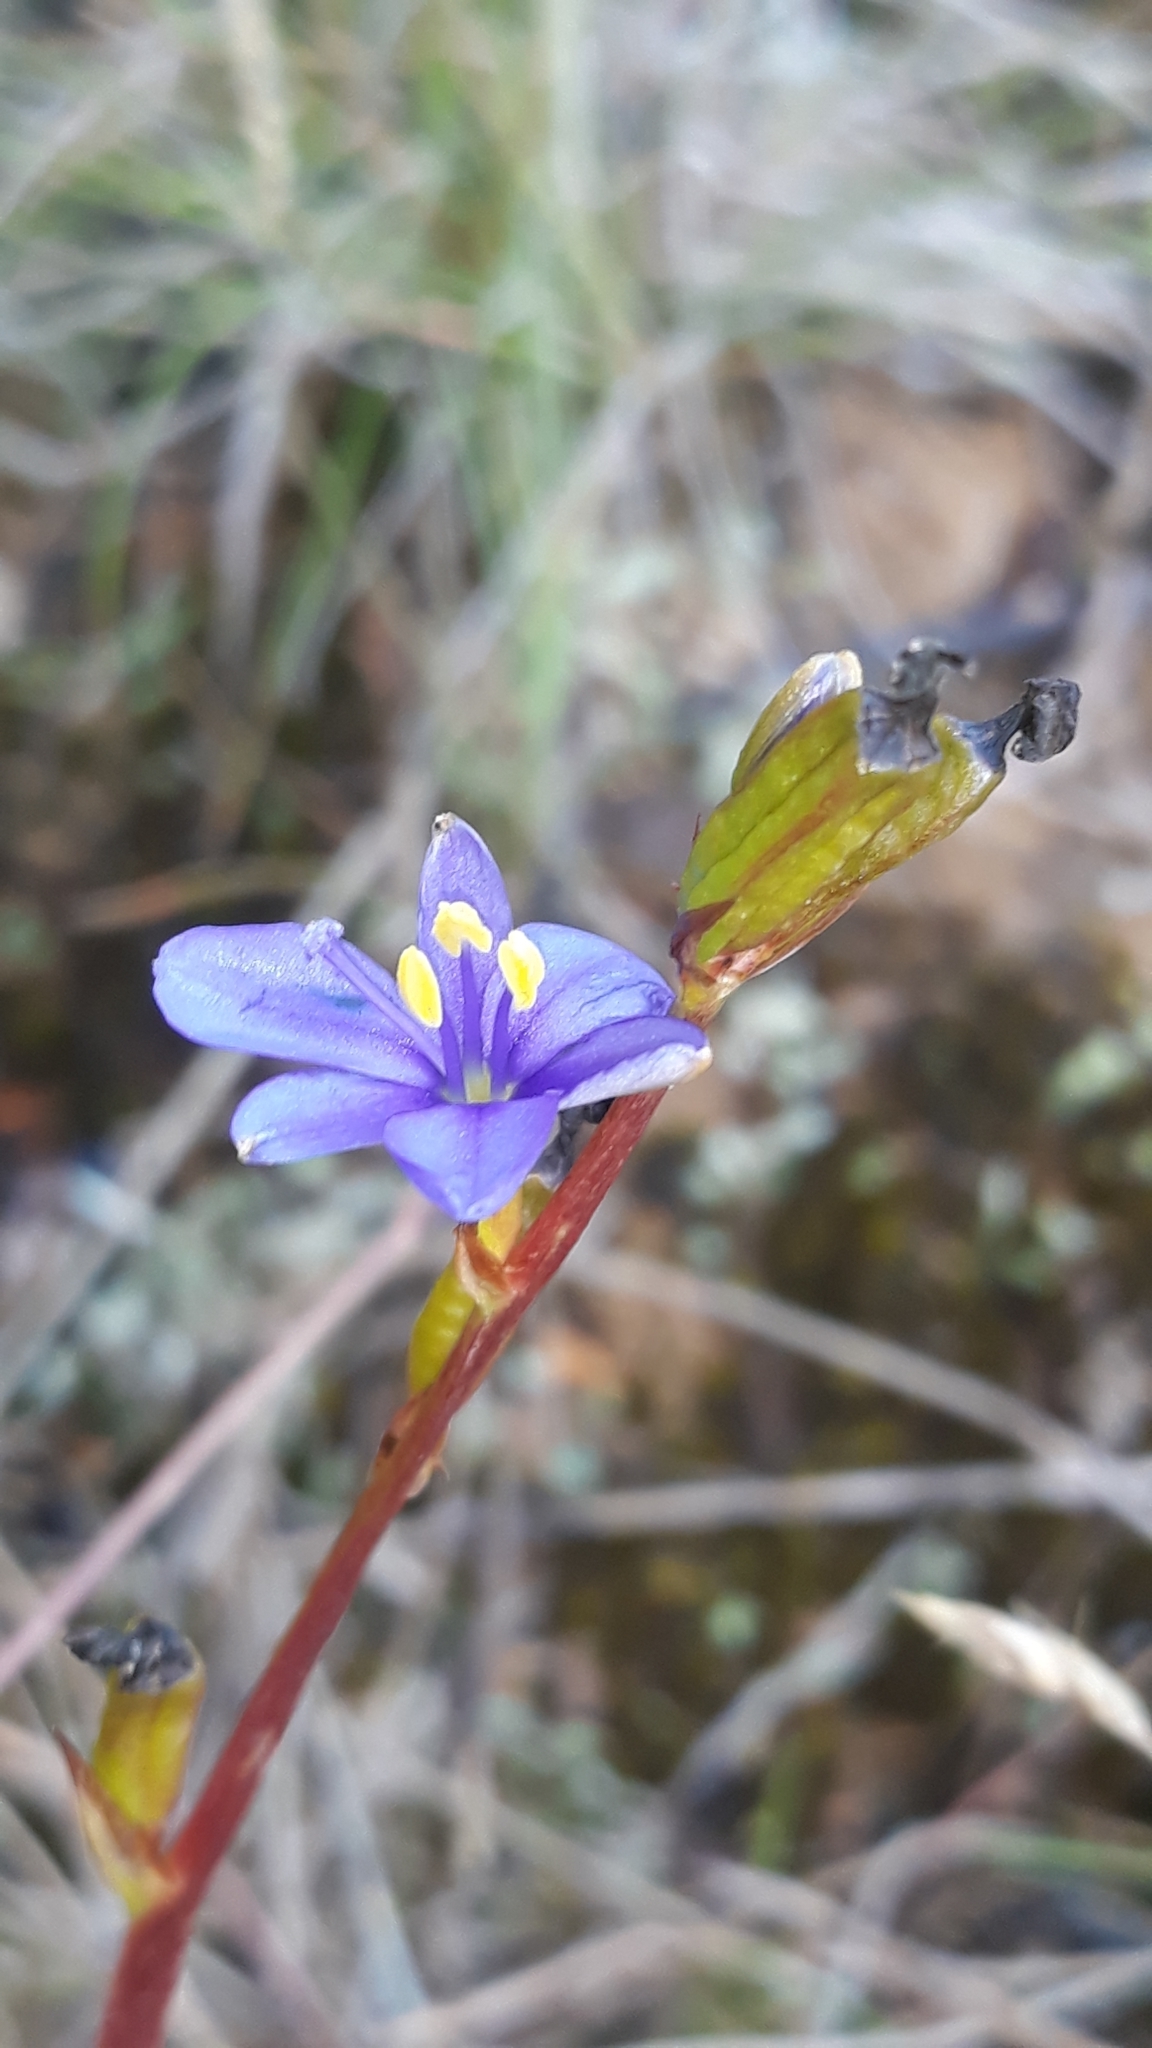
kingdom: Plantae
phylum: Tracheophyta
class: Liliopsida
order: Asparagales
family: Iridaceae
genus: Aristea
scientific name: Aristea ecklonii
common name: Blue corn-lily
